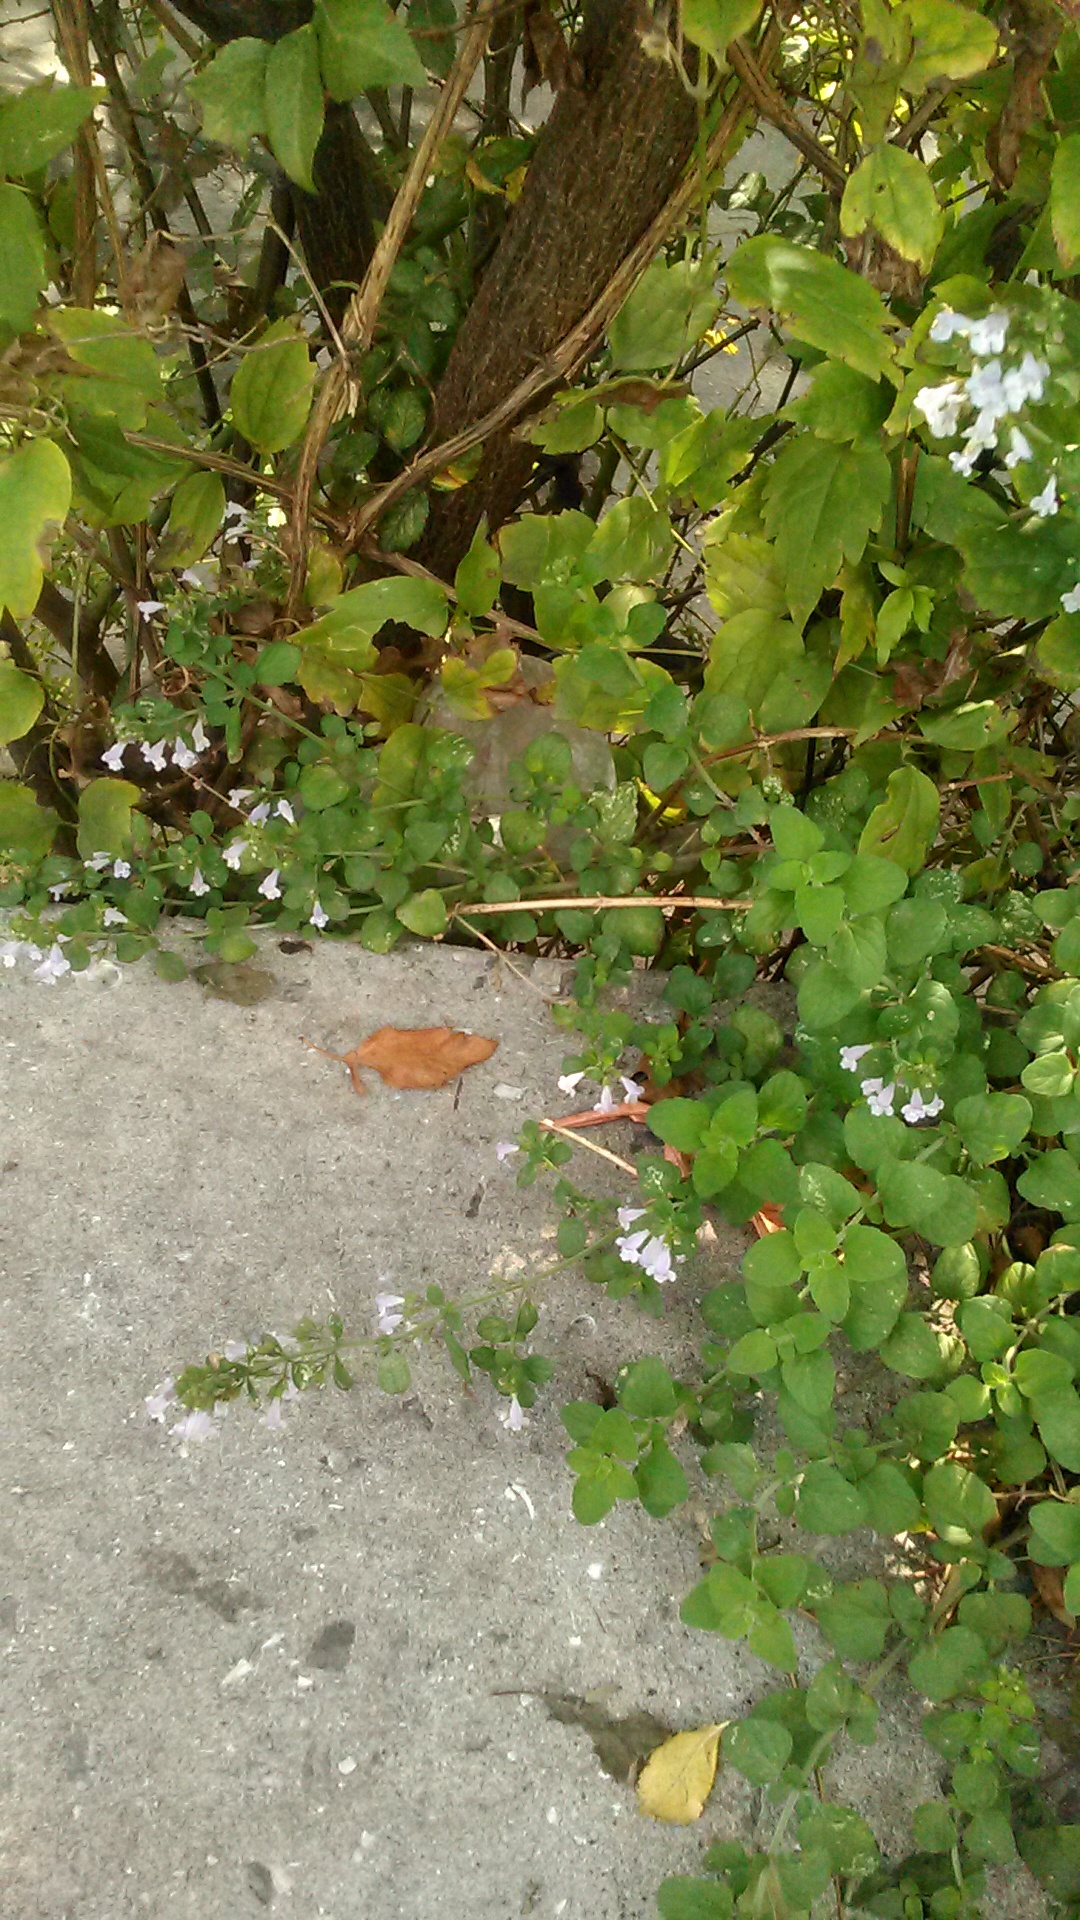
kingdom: Plantae
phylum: Tracheophyta
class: Magnoliopsida
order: Lamiales
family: Lamiaceae
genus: Clinopodium
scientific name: Clinopodium nepeta
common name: Lesser calamint
